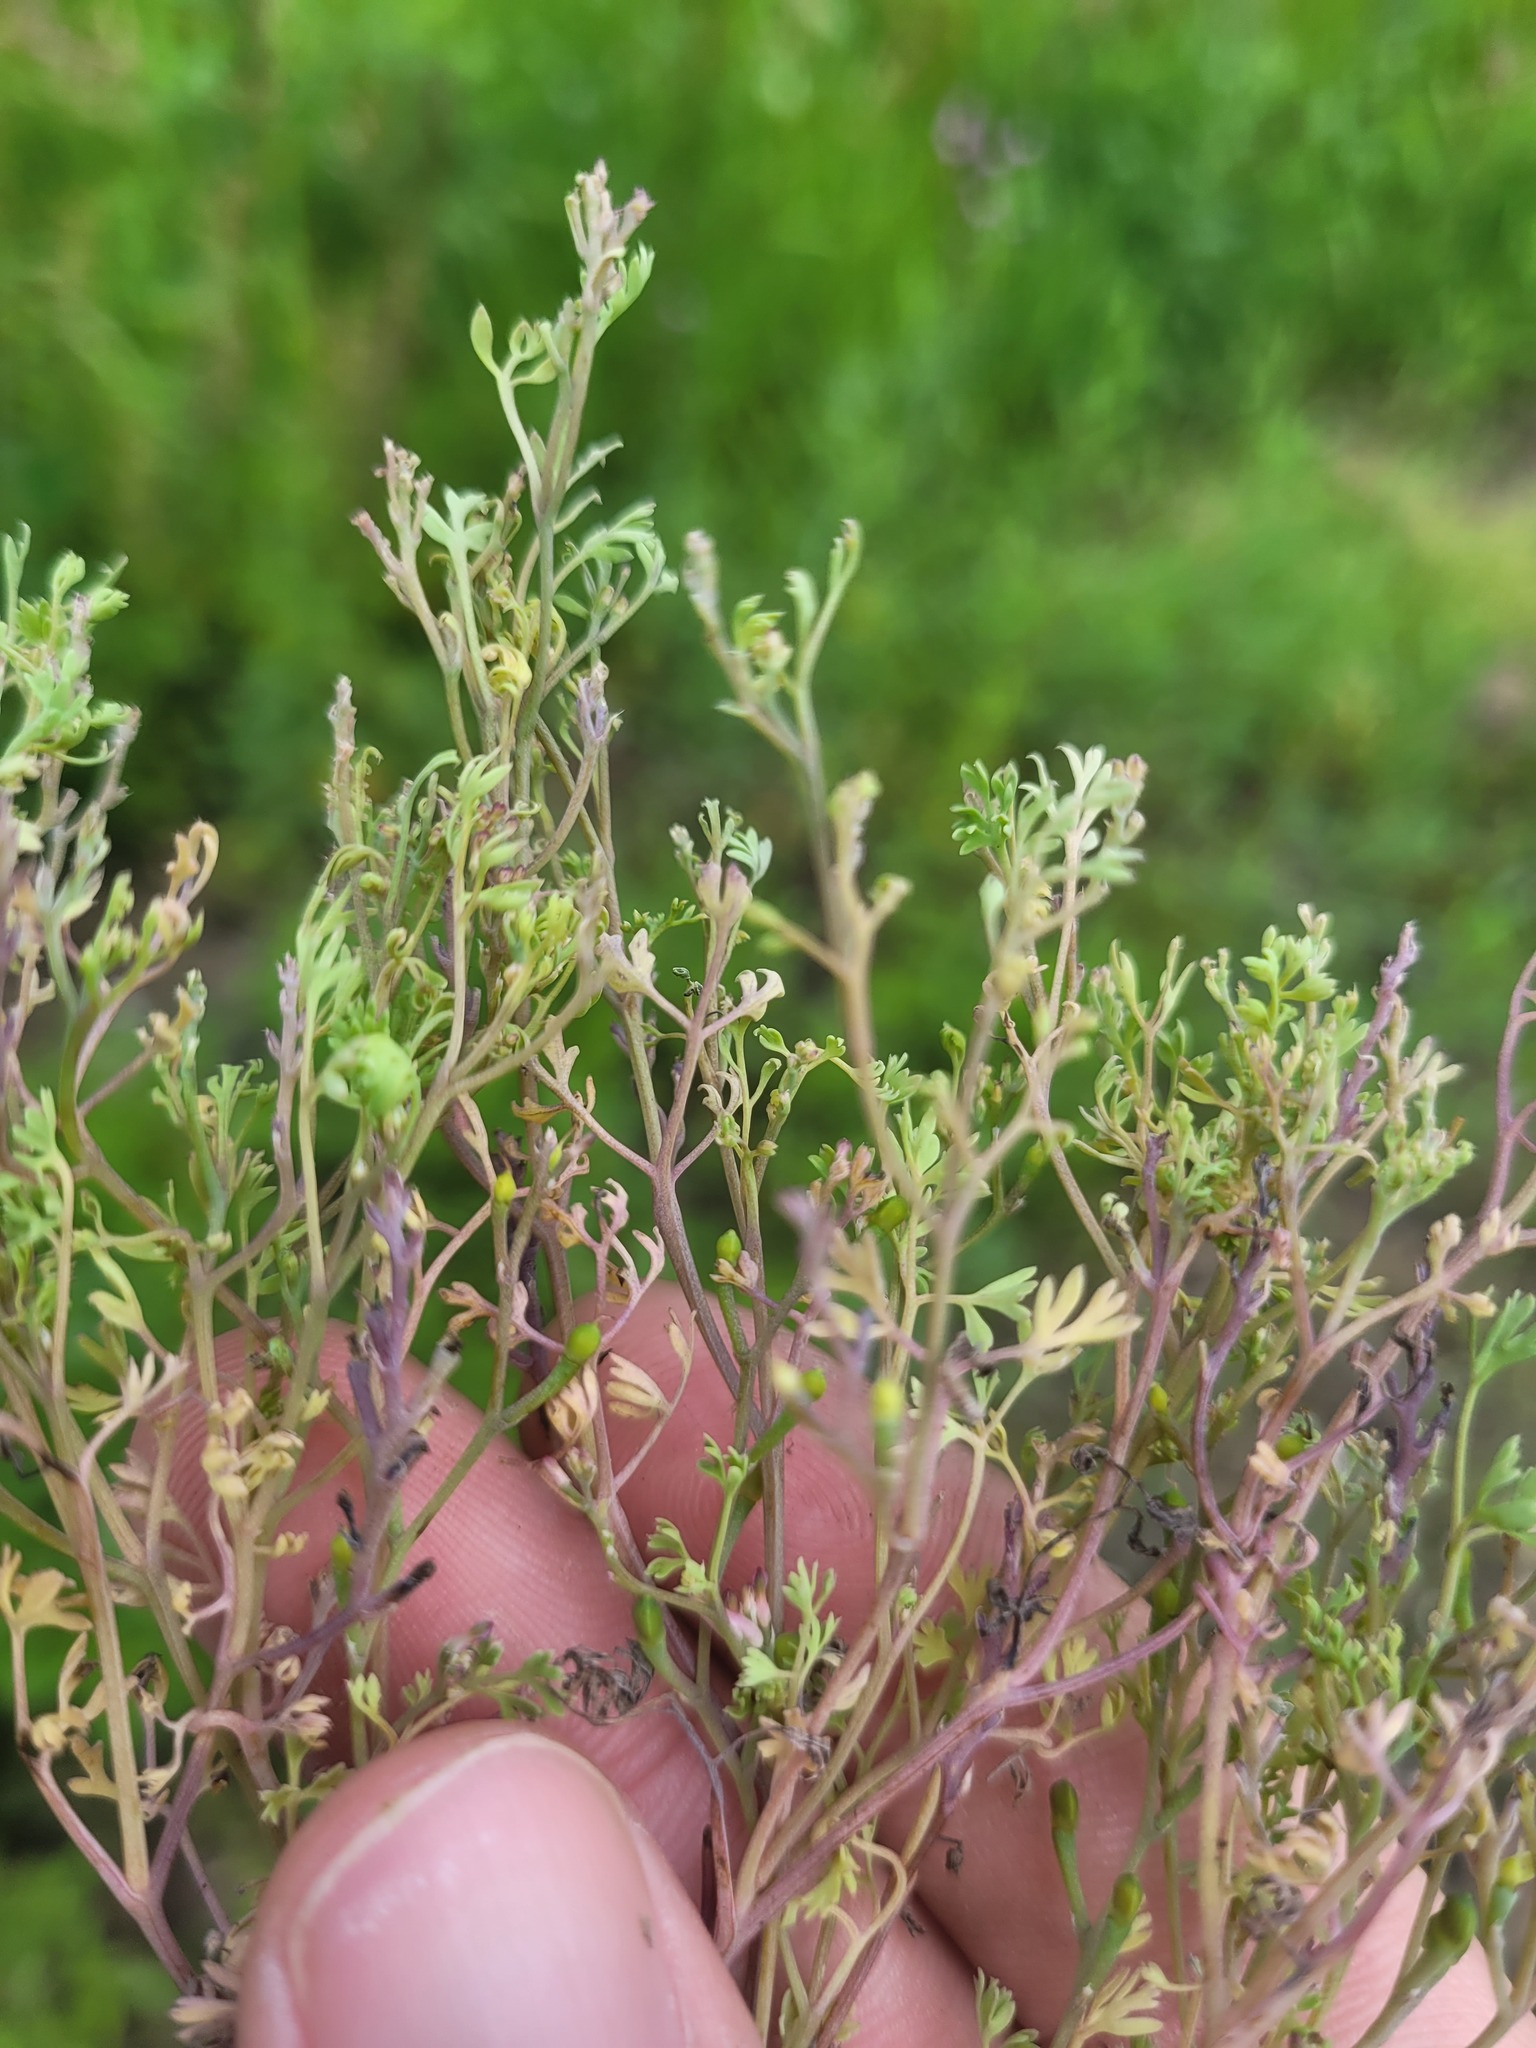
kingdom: Plantae
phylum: Tracheophyta
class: Magnoliopsida
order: Ranunculales
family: Papaveraceae
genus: Fumaria
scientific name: Fumaria schleicheri
